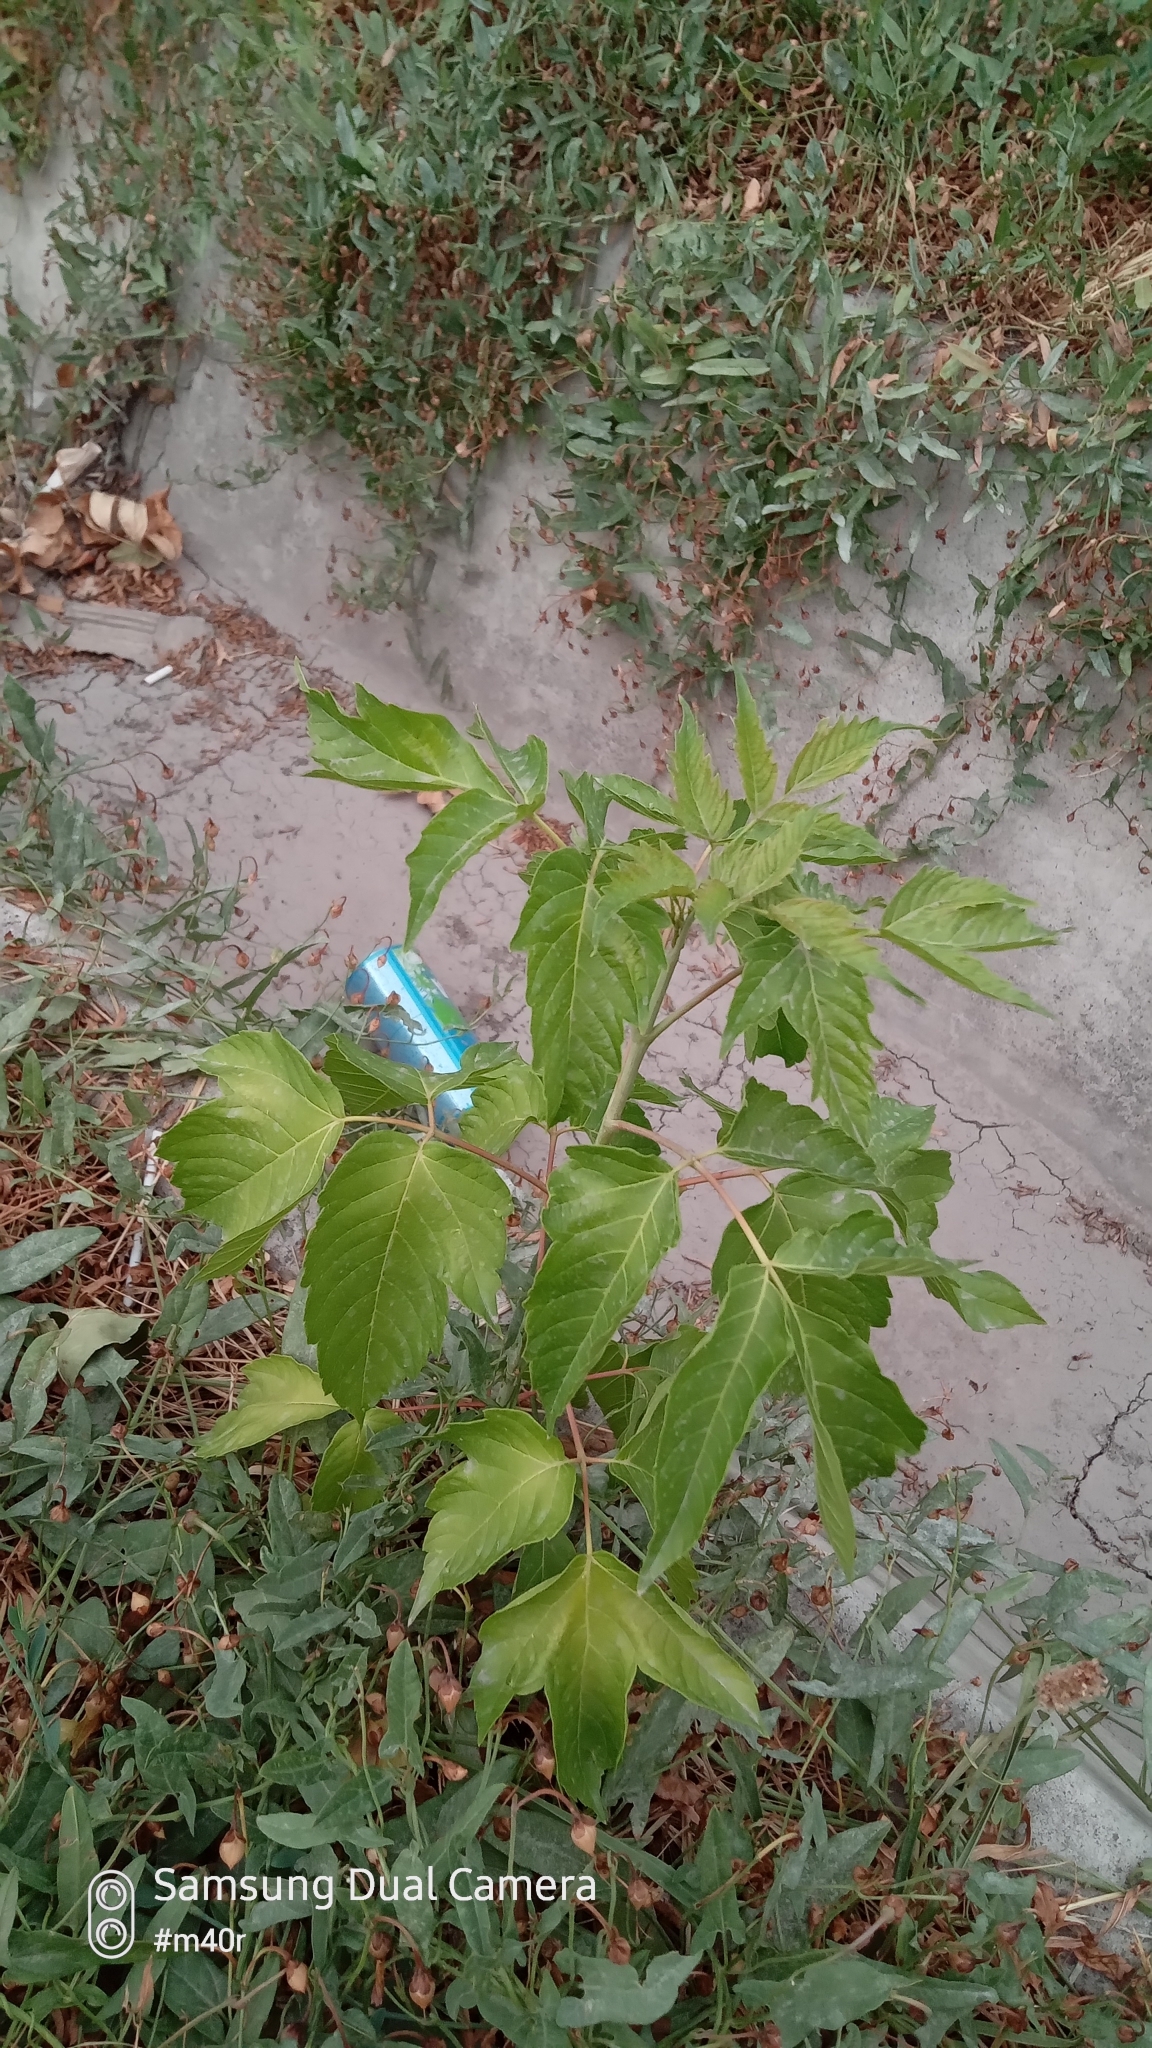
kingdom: Plantae
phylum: Tracheophyta
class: Magnoliopsida
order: Sapindales
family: Sapindaceae
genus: Acer
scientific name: Acer negundo
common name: Ashleaf maple
